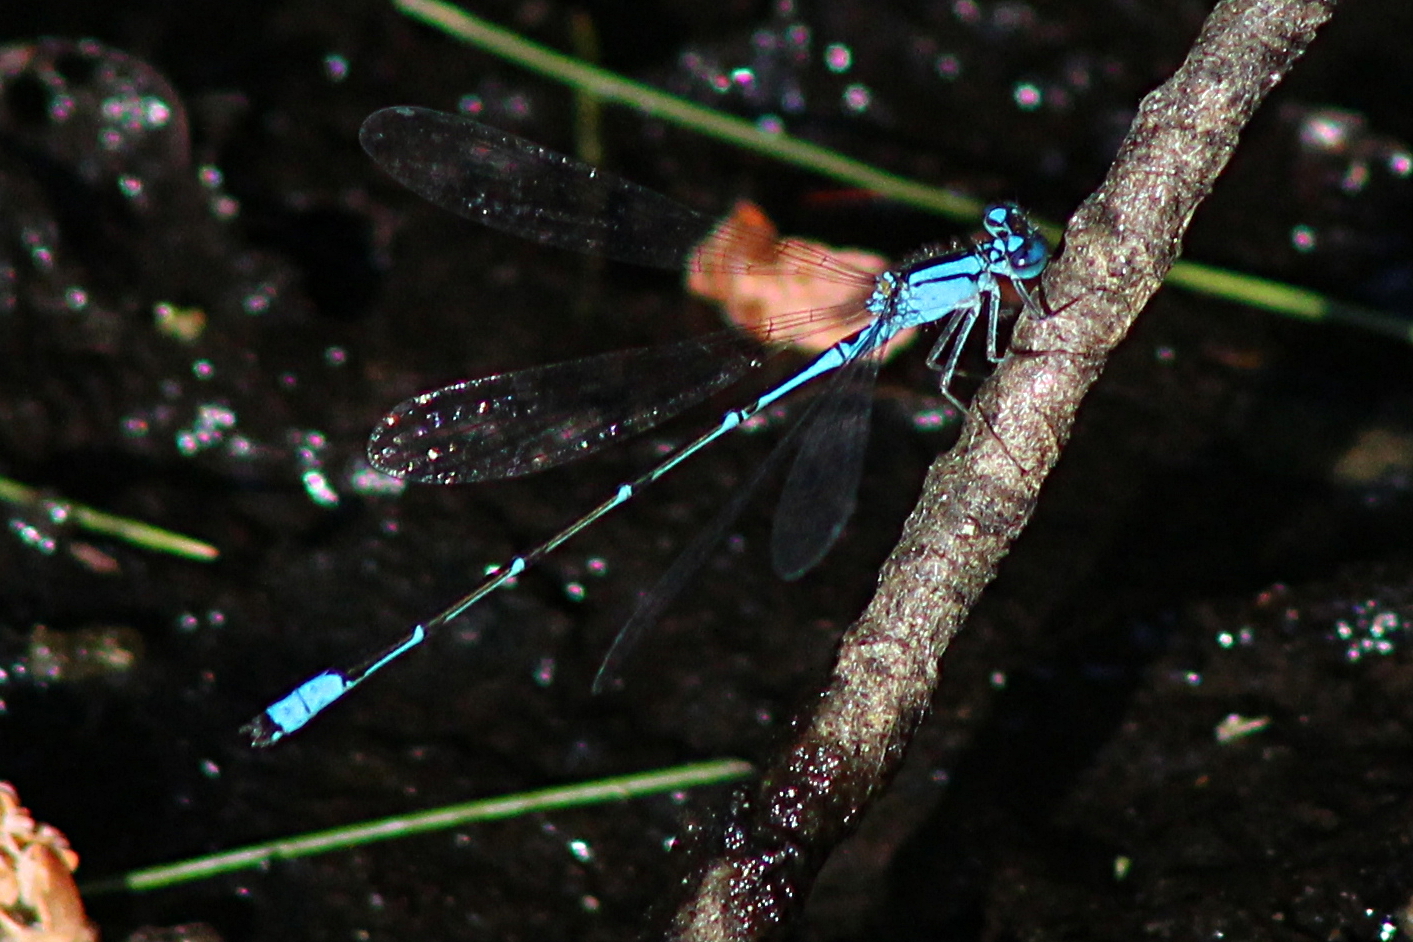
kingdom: Animalia
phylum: Arthropoda
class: Insecta
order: Odonata
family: Coenagrionidae
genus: Enallagma
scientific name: Enallagma traviatum
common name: Slender bluet
